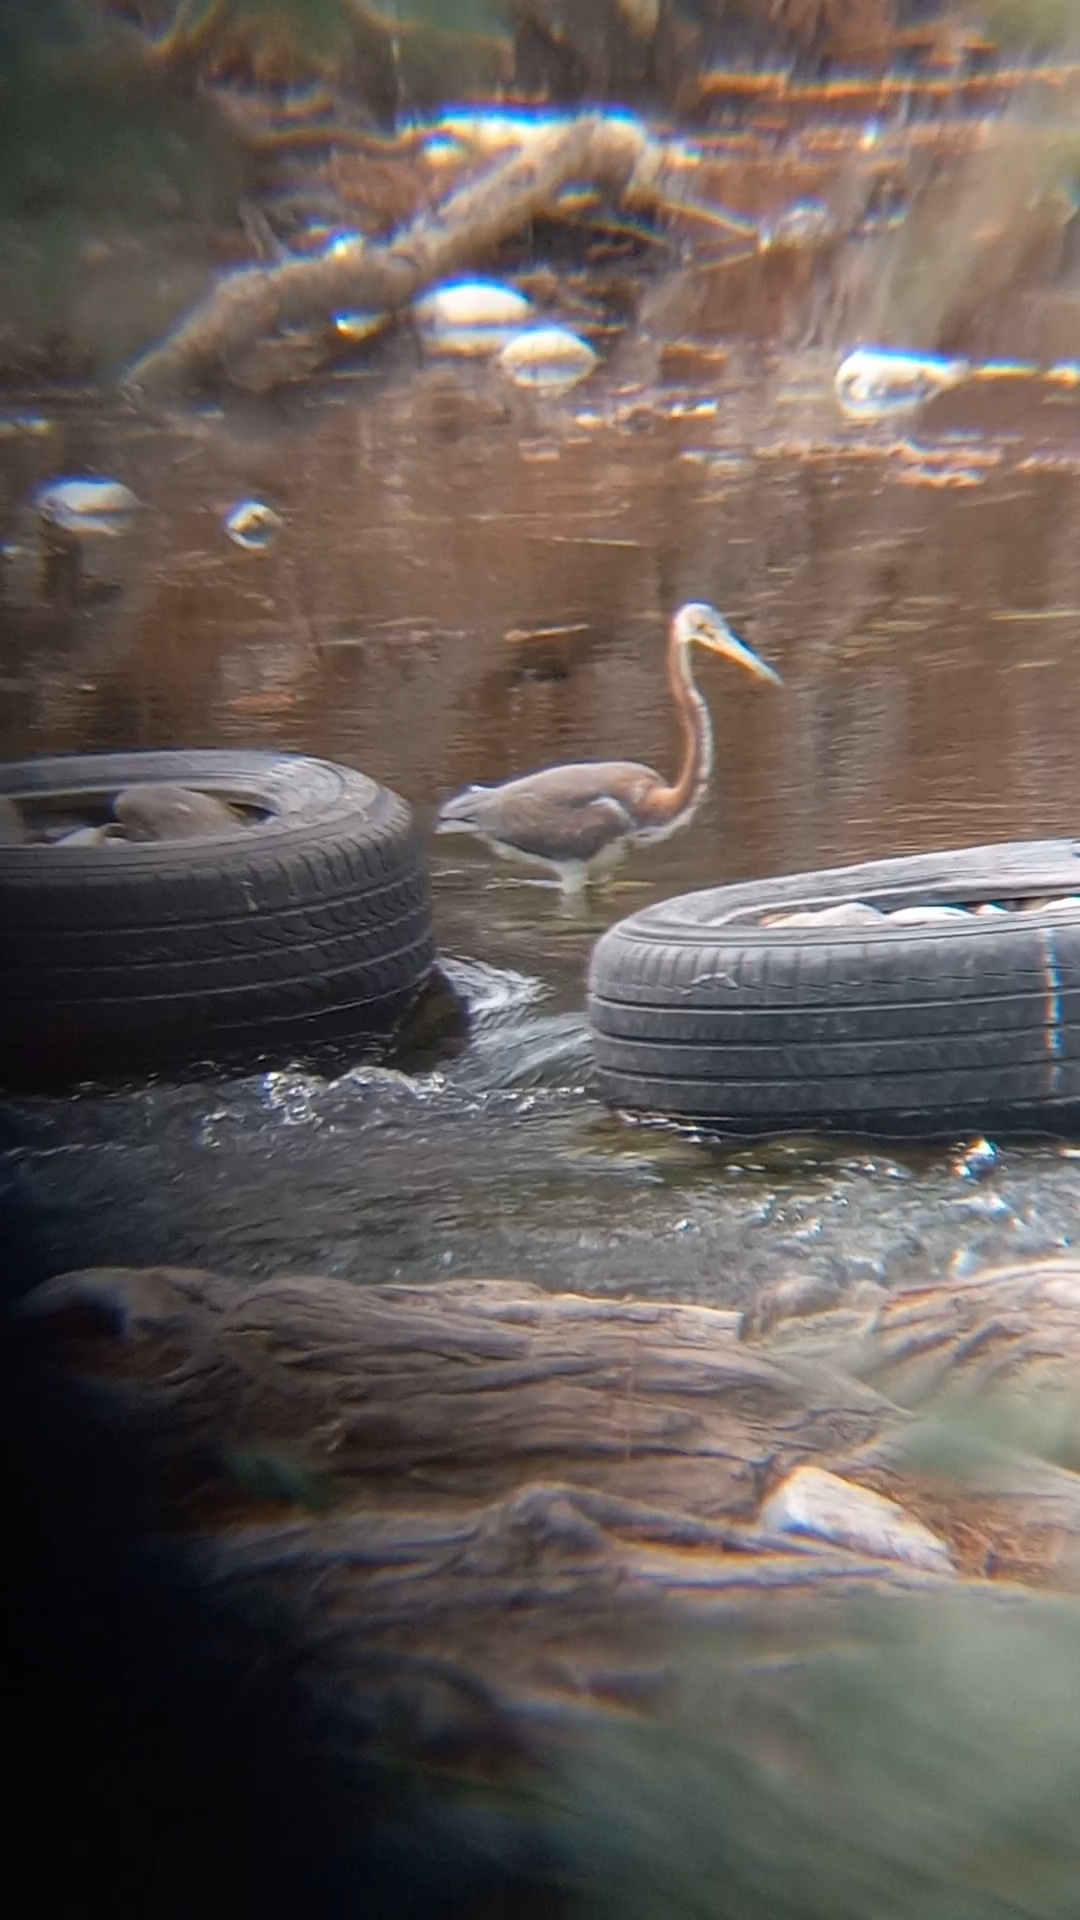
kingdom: Animalia
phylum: Chordata
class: Aves
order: Pelecaniformes
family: Ardeidae
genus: Egretta
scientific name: Egretta tricolor
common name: Tricolored heron
